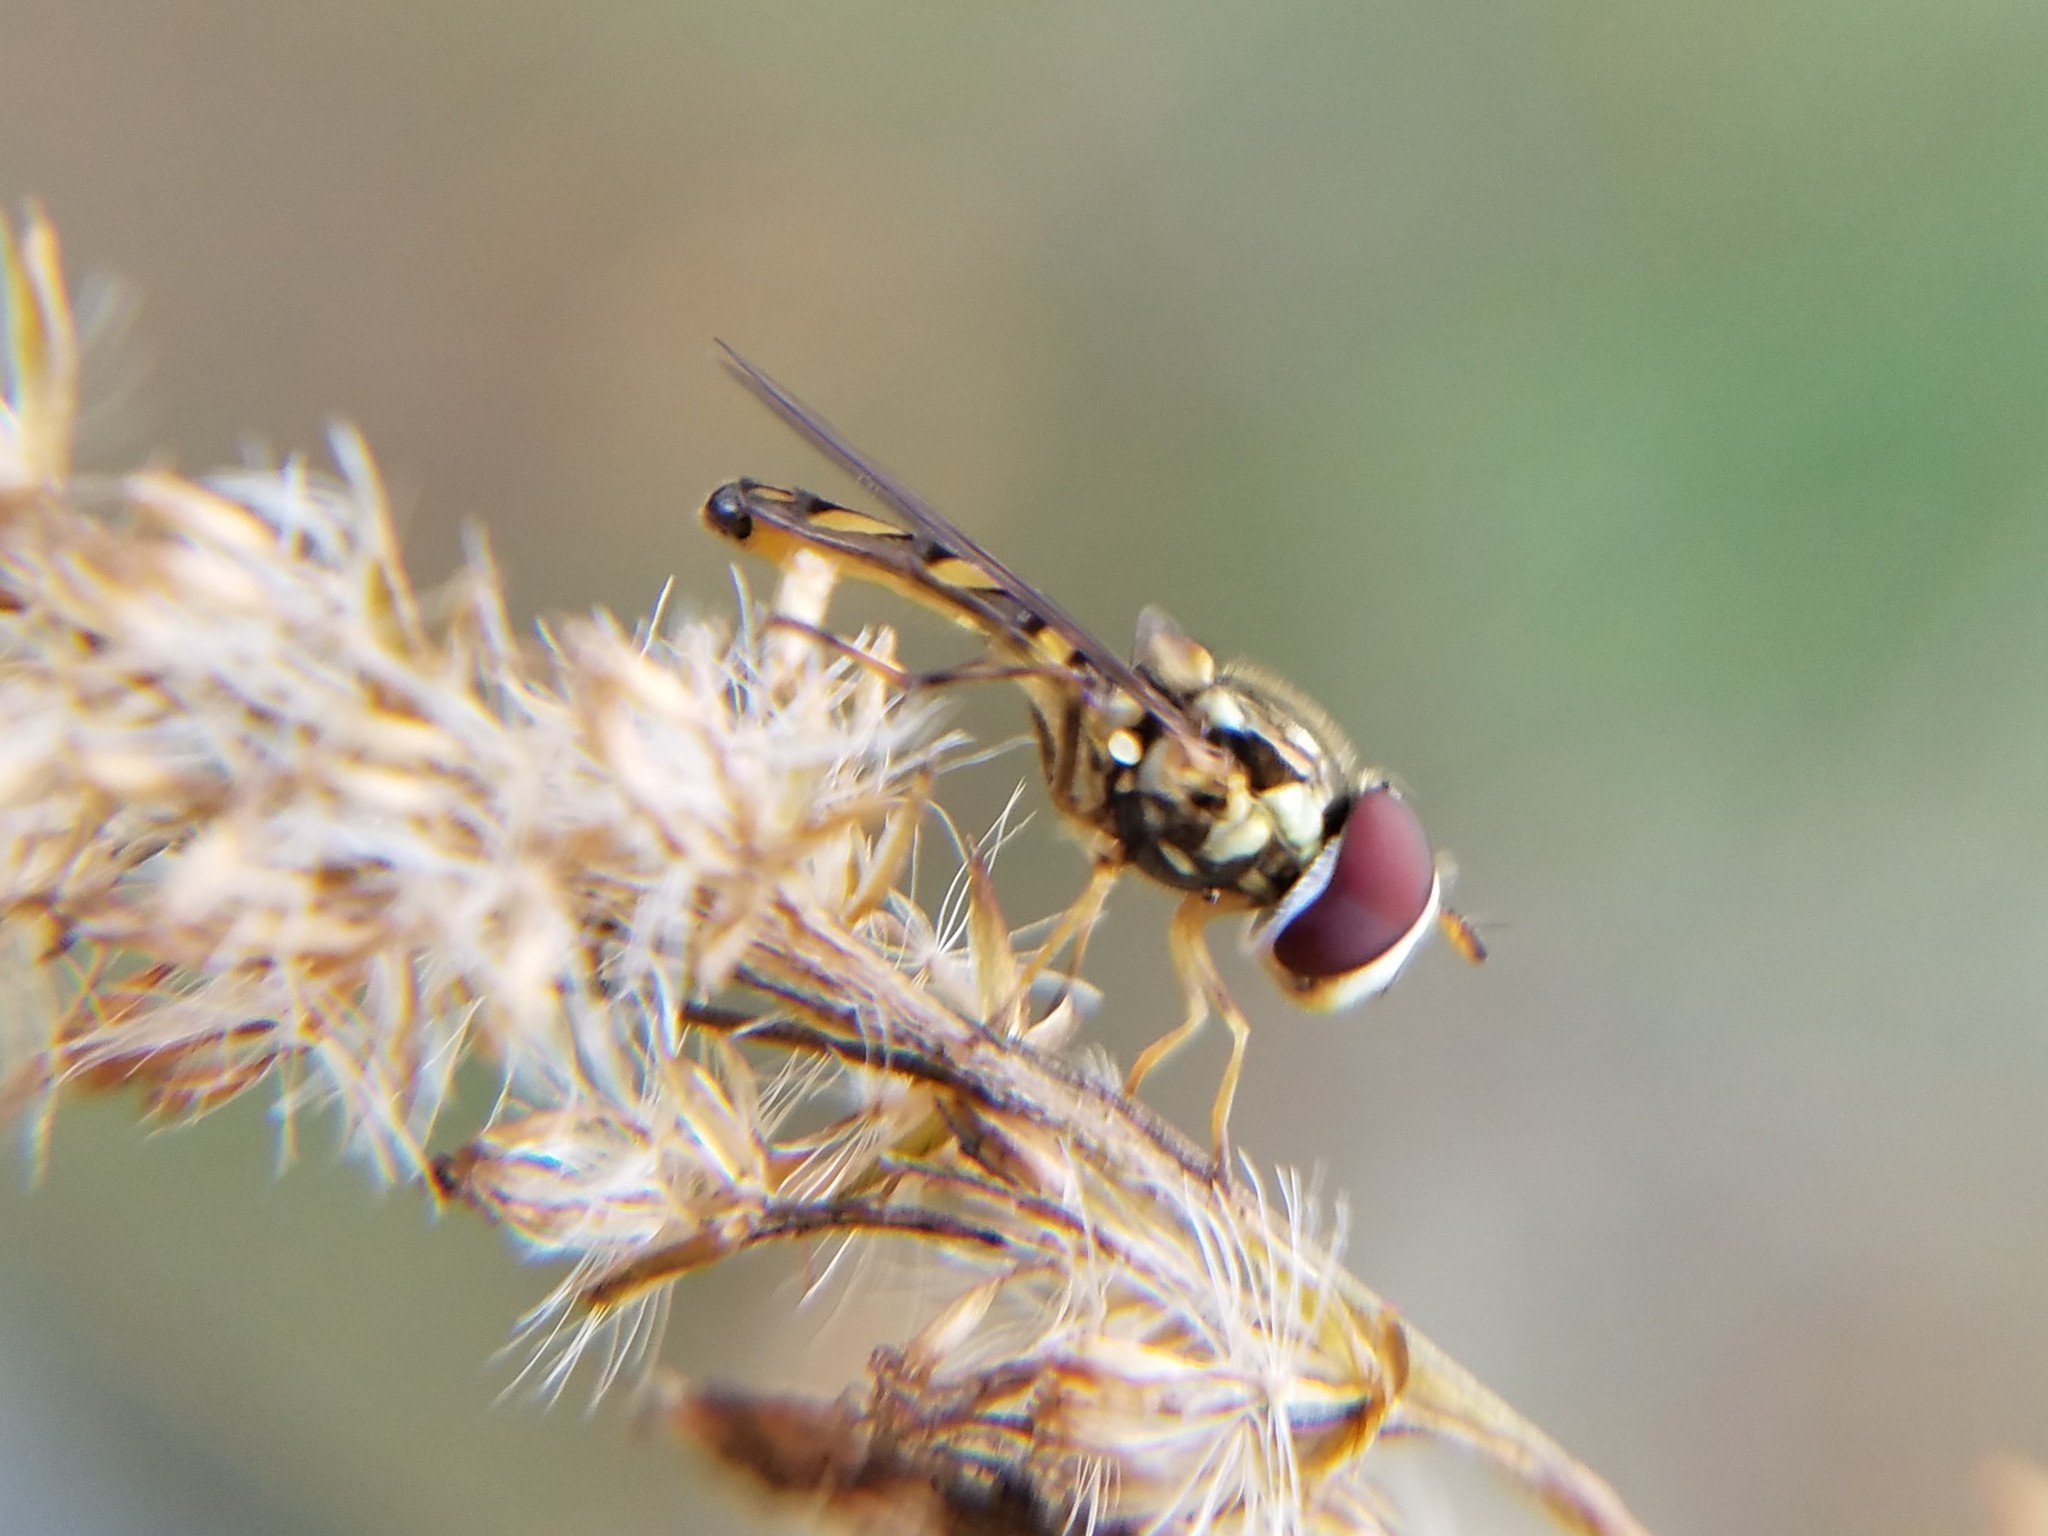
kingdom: Animalia
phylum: Arthropoda
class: Insecta
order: Diptera
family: Syrphidae
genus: Allograpta
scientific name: Allograpta obliqua
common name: Common oblique syrphid
